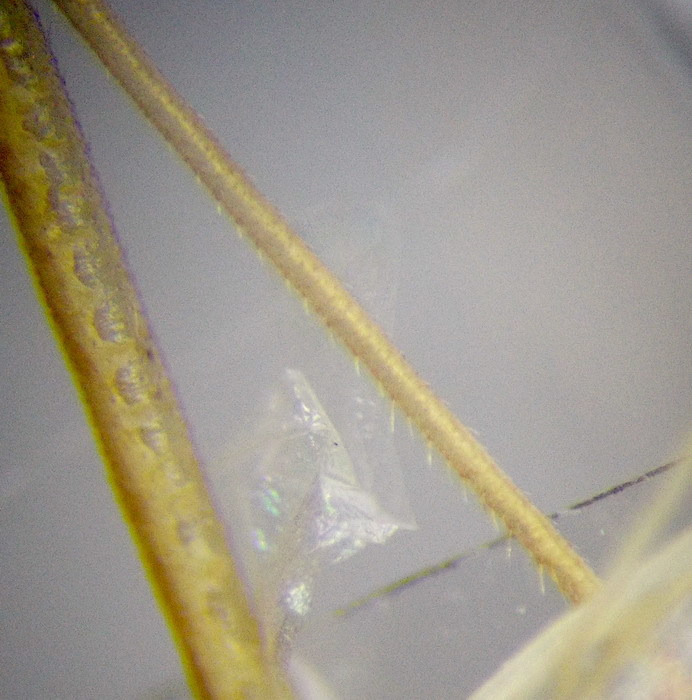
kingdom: Animalia
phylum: Arthropoda
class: Insecta
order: Hemiptera
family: Rhopalidae
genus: Chorosoma
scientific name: Chorosoma schillingii
